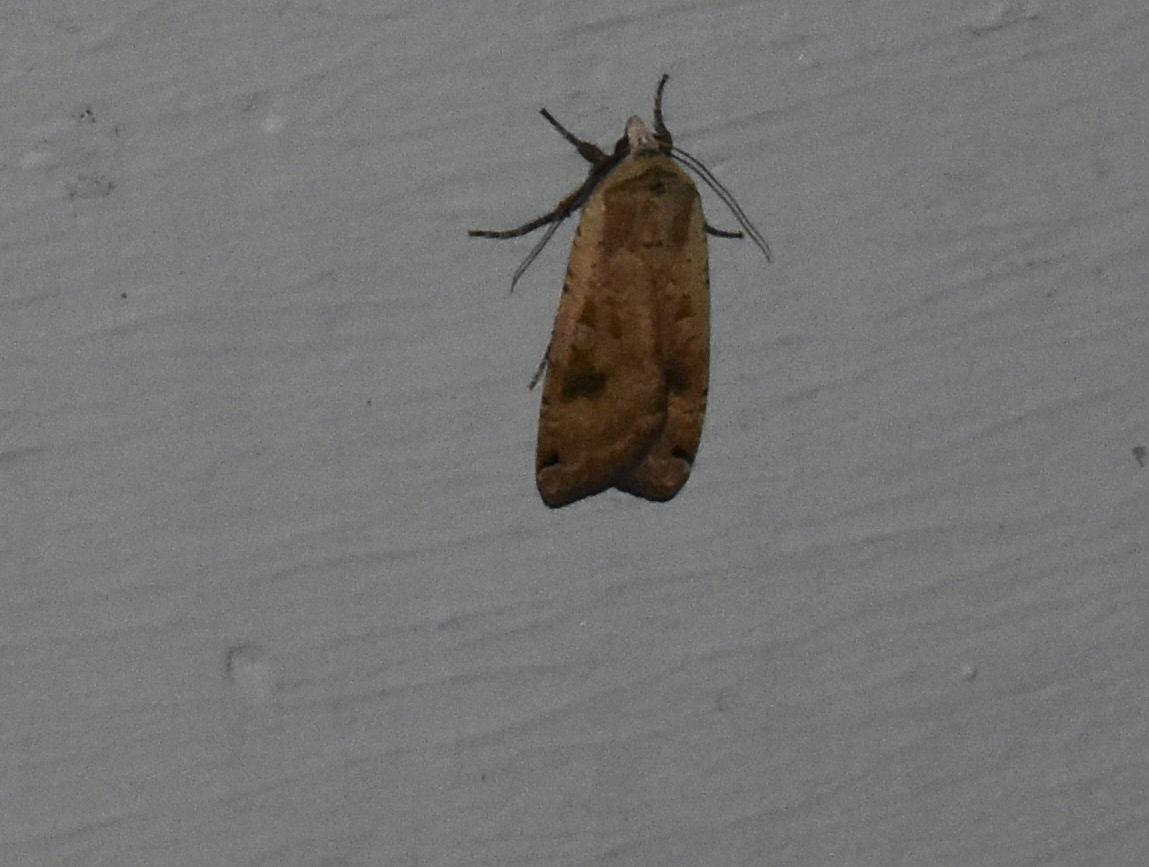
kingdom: Animalia
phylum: Arthropoda
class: Insecta
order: Lepidoptera
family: Noctuidae
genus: Noctua
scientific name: Noctua pronuba
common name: Large yellow underwing
